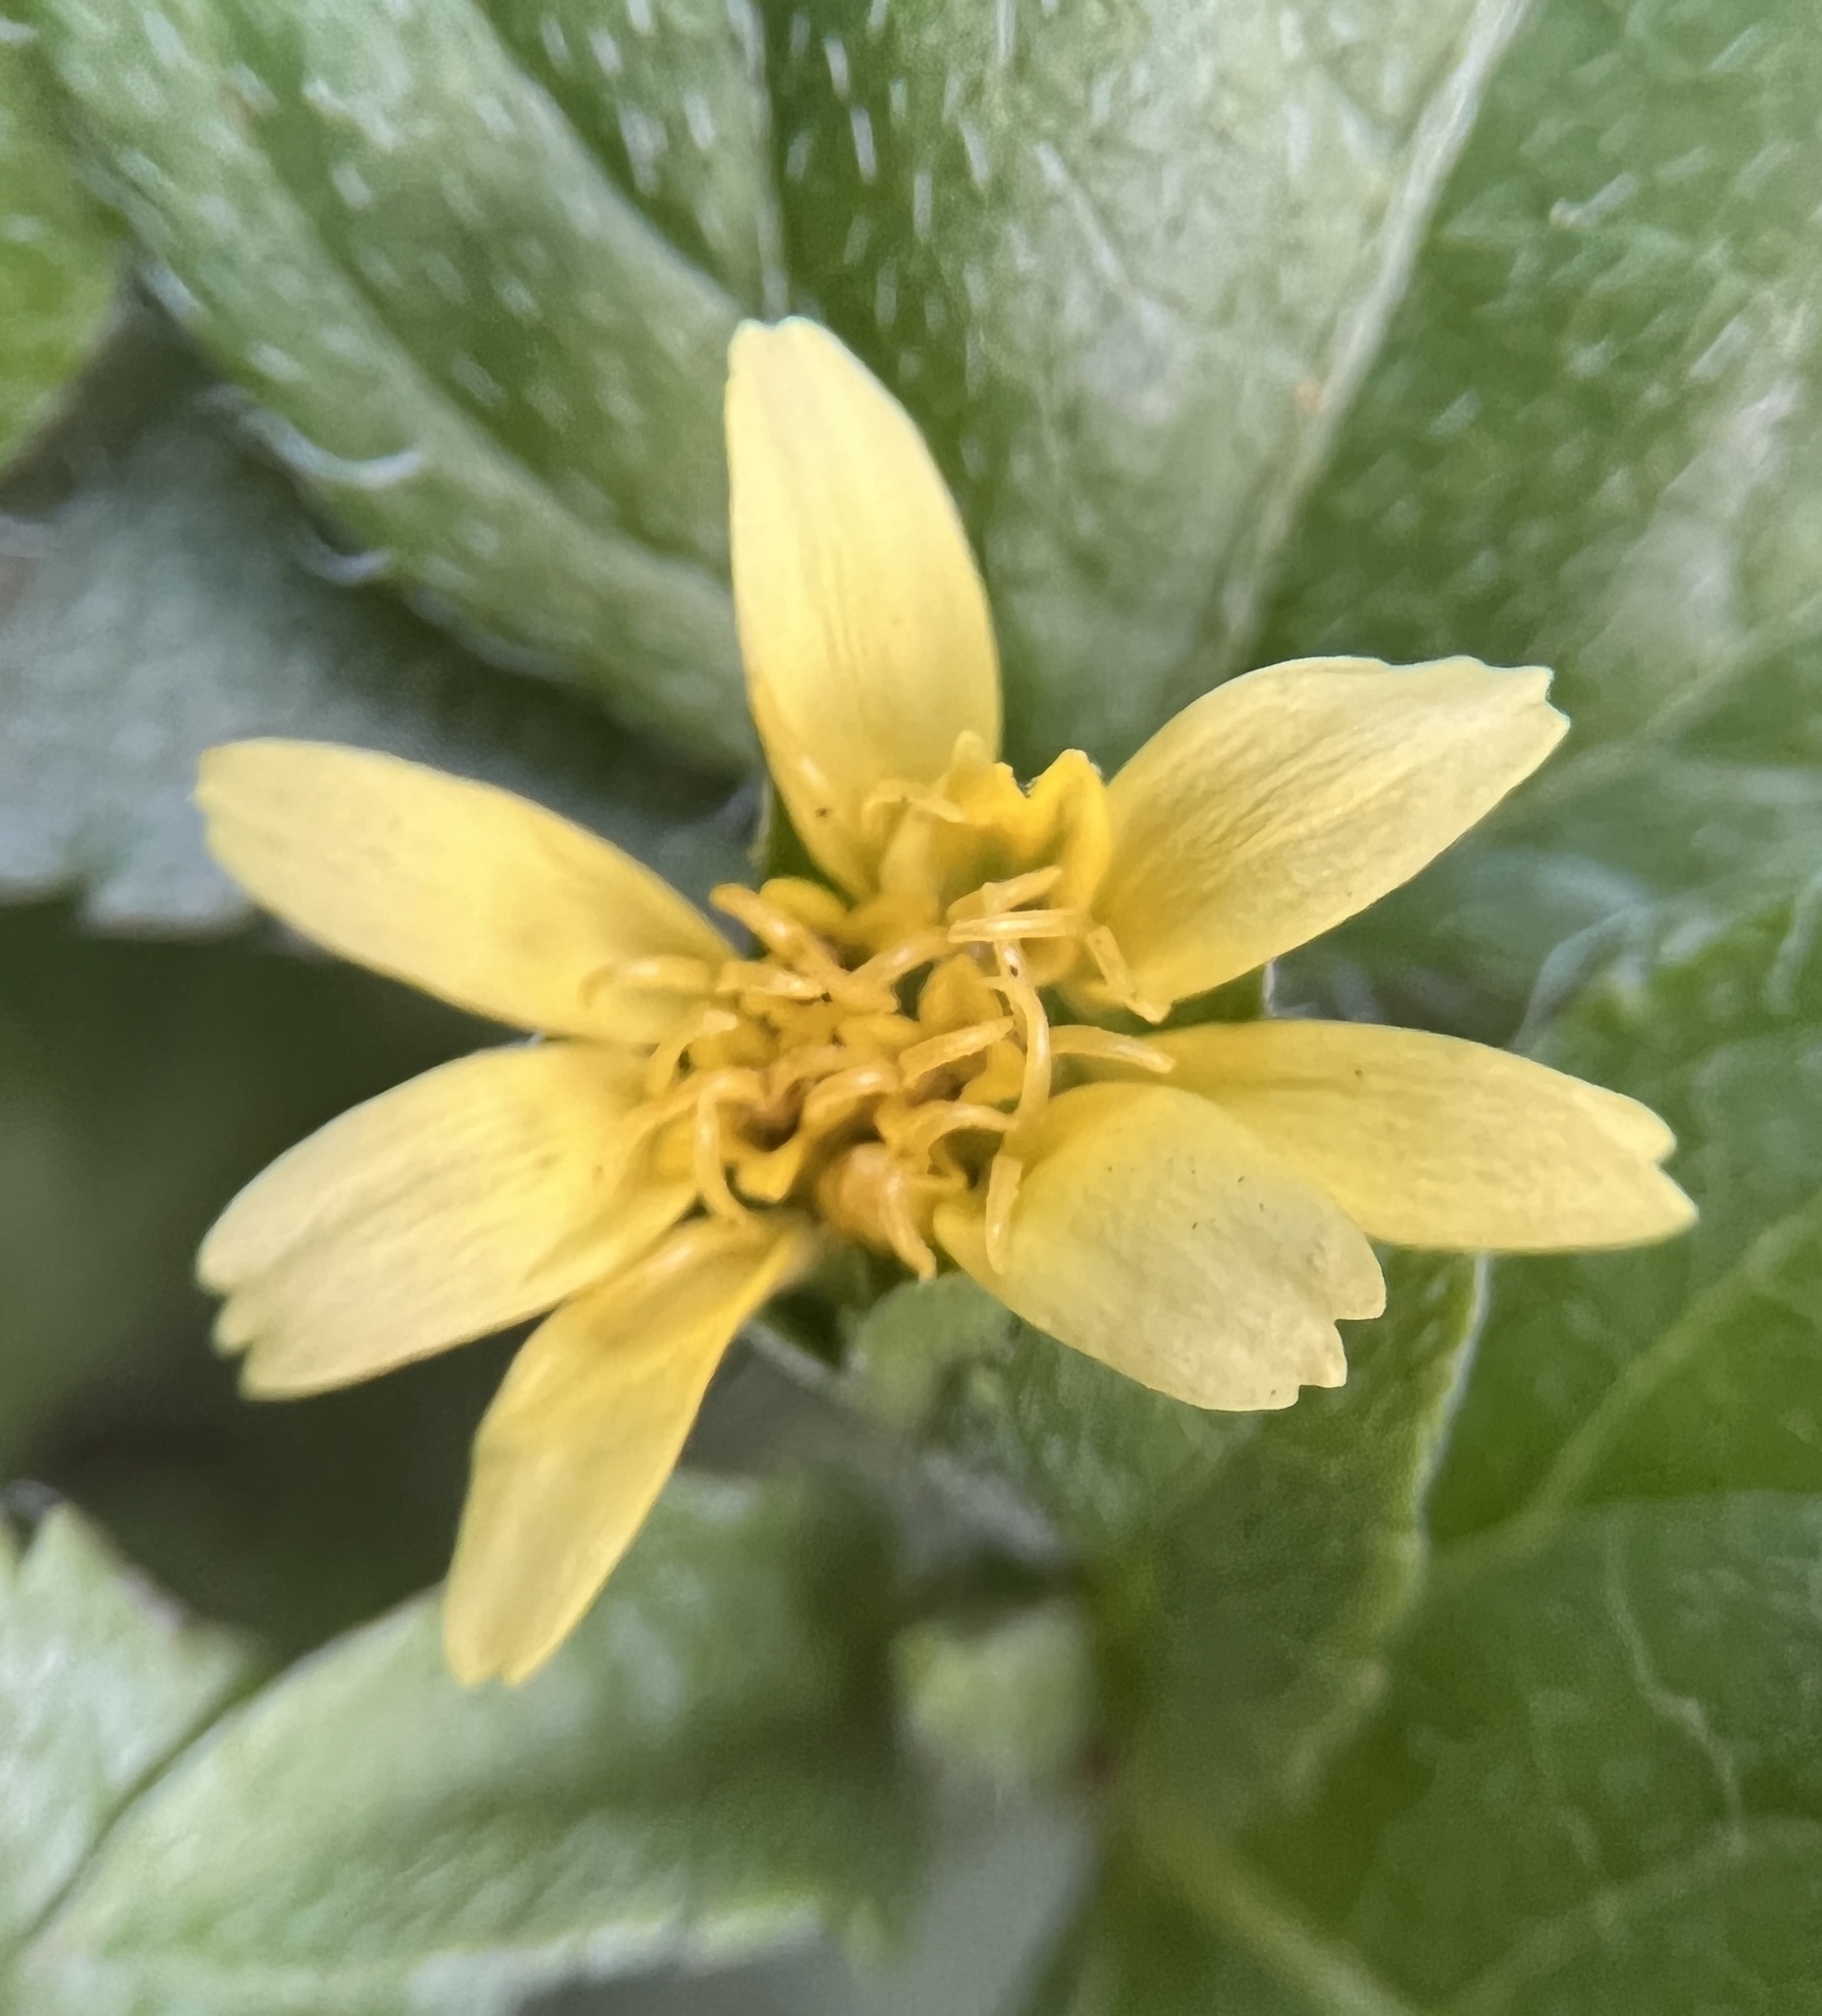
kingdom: Plantae
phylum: Tracheophyta
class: Magnoliopsida
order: Asterales
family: Asteraceae
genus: Calyptocarpus
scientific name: Calyptocarpus vialis
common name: Straggler daisy
